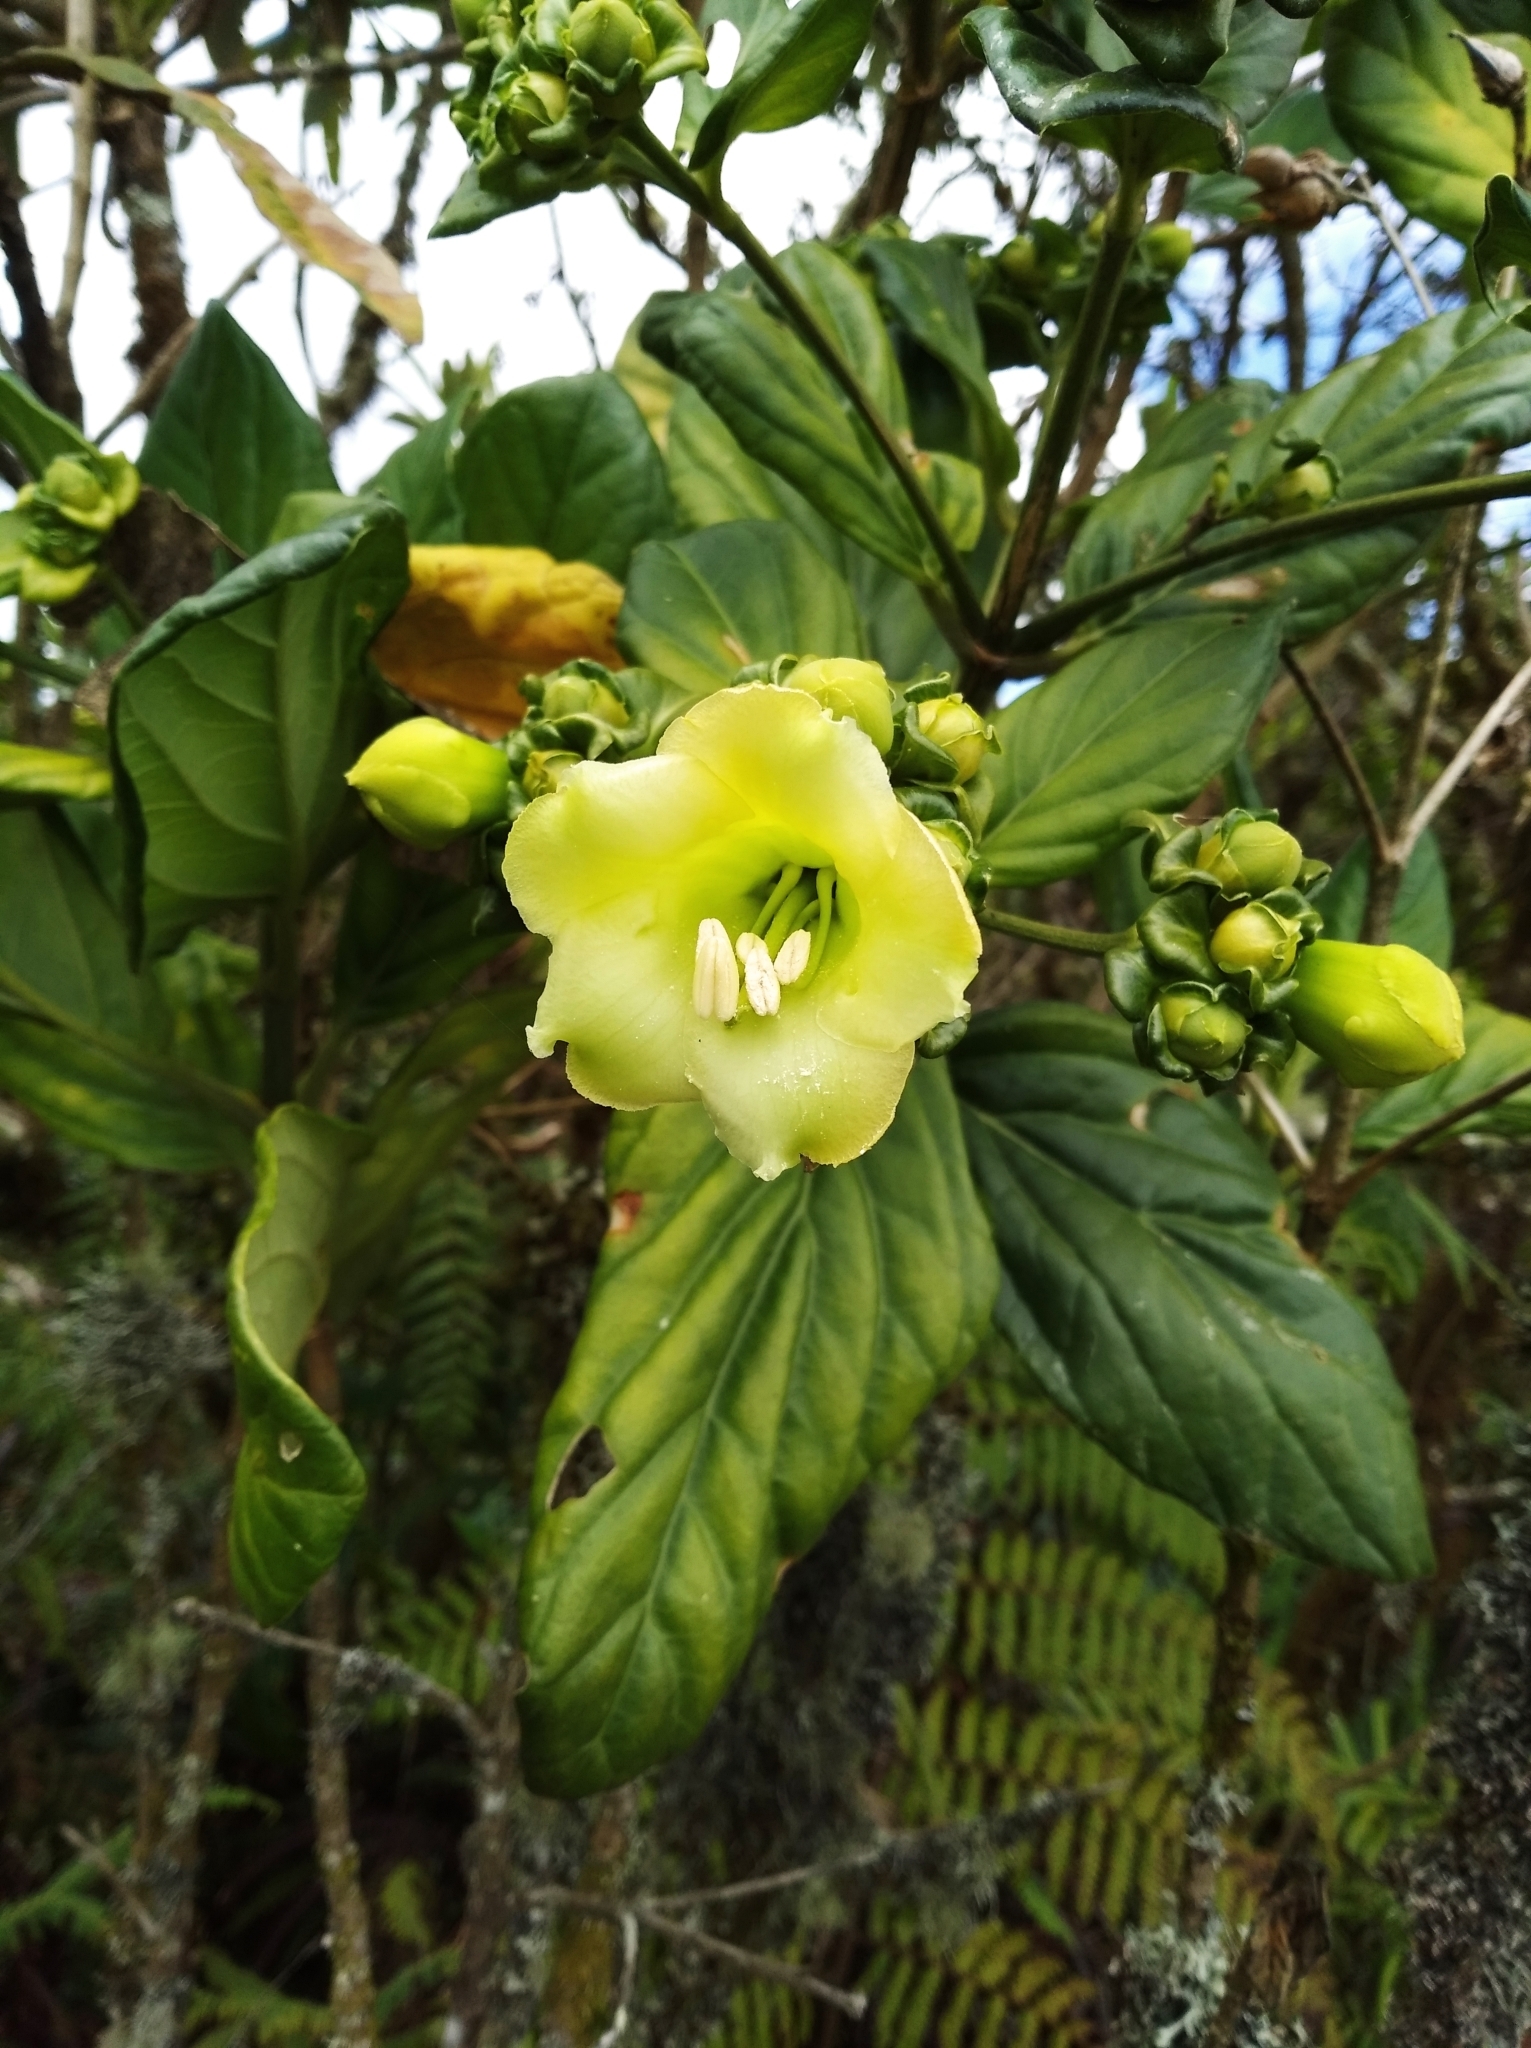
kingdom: Plantae
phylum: Tracheophyta
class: Magnoliopsida
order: Gentianales
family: Gentianaceae
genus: Macrocarpaea
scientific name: Macrocarpaea bracteata
